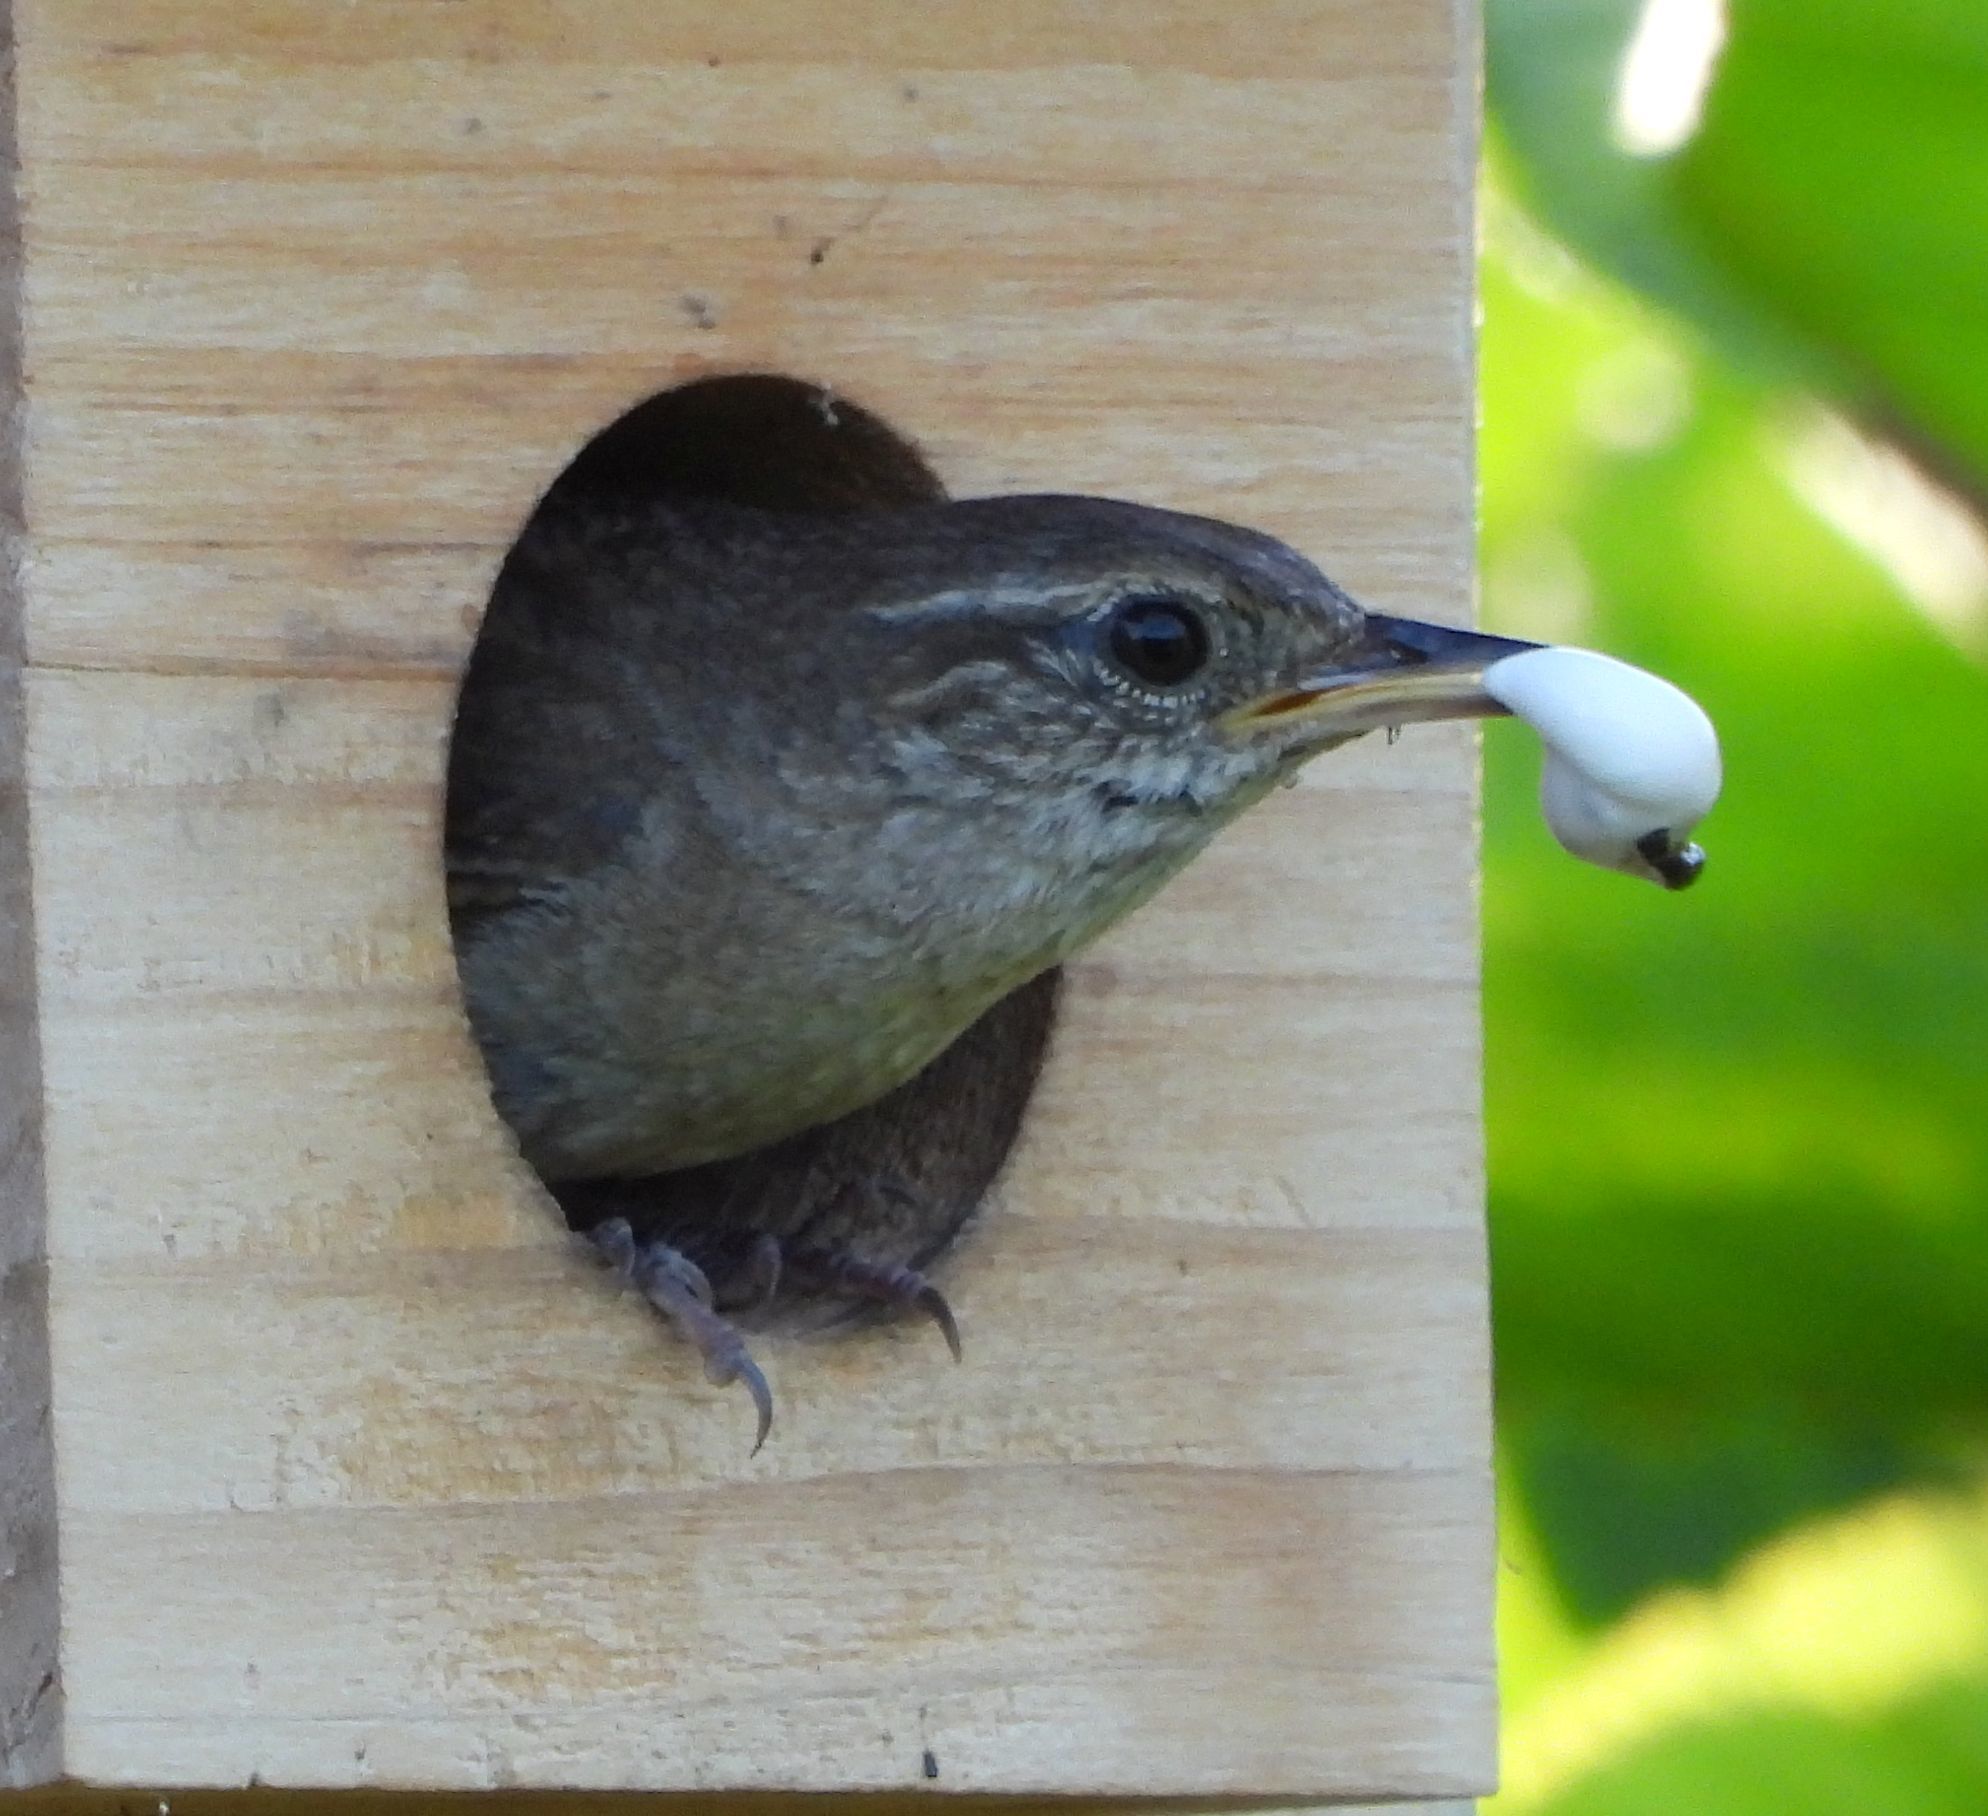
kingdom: Animalia
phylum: Chordata
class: Aves
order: Passeriformes
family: Troglodytidae
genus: Troglodytes
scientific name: Troglodytes aedon
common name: House wren
